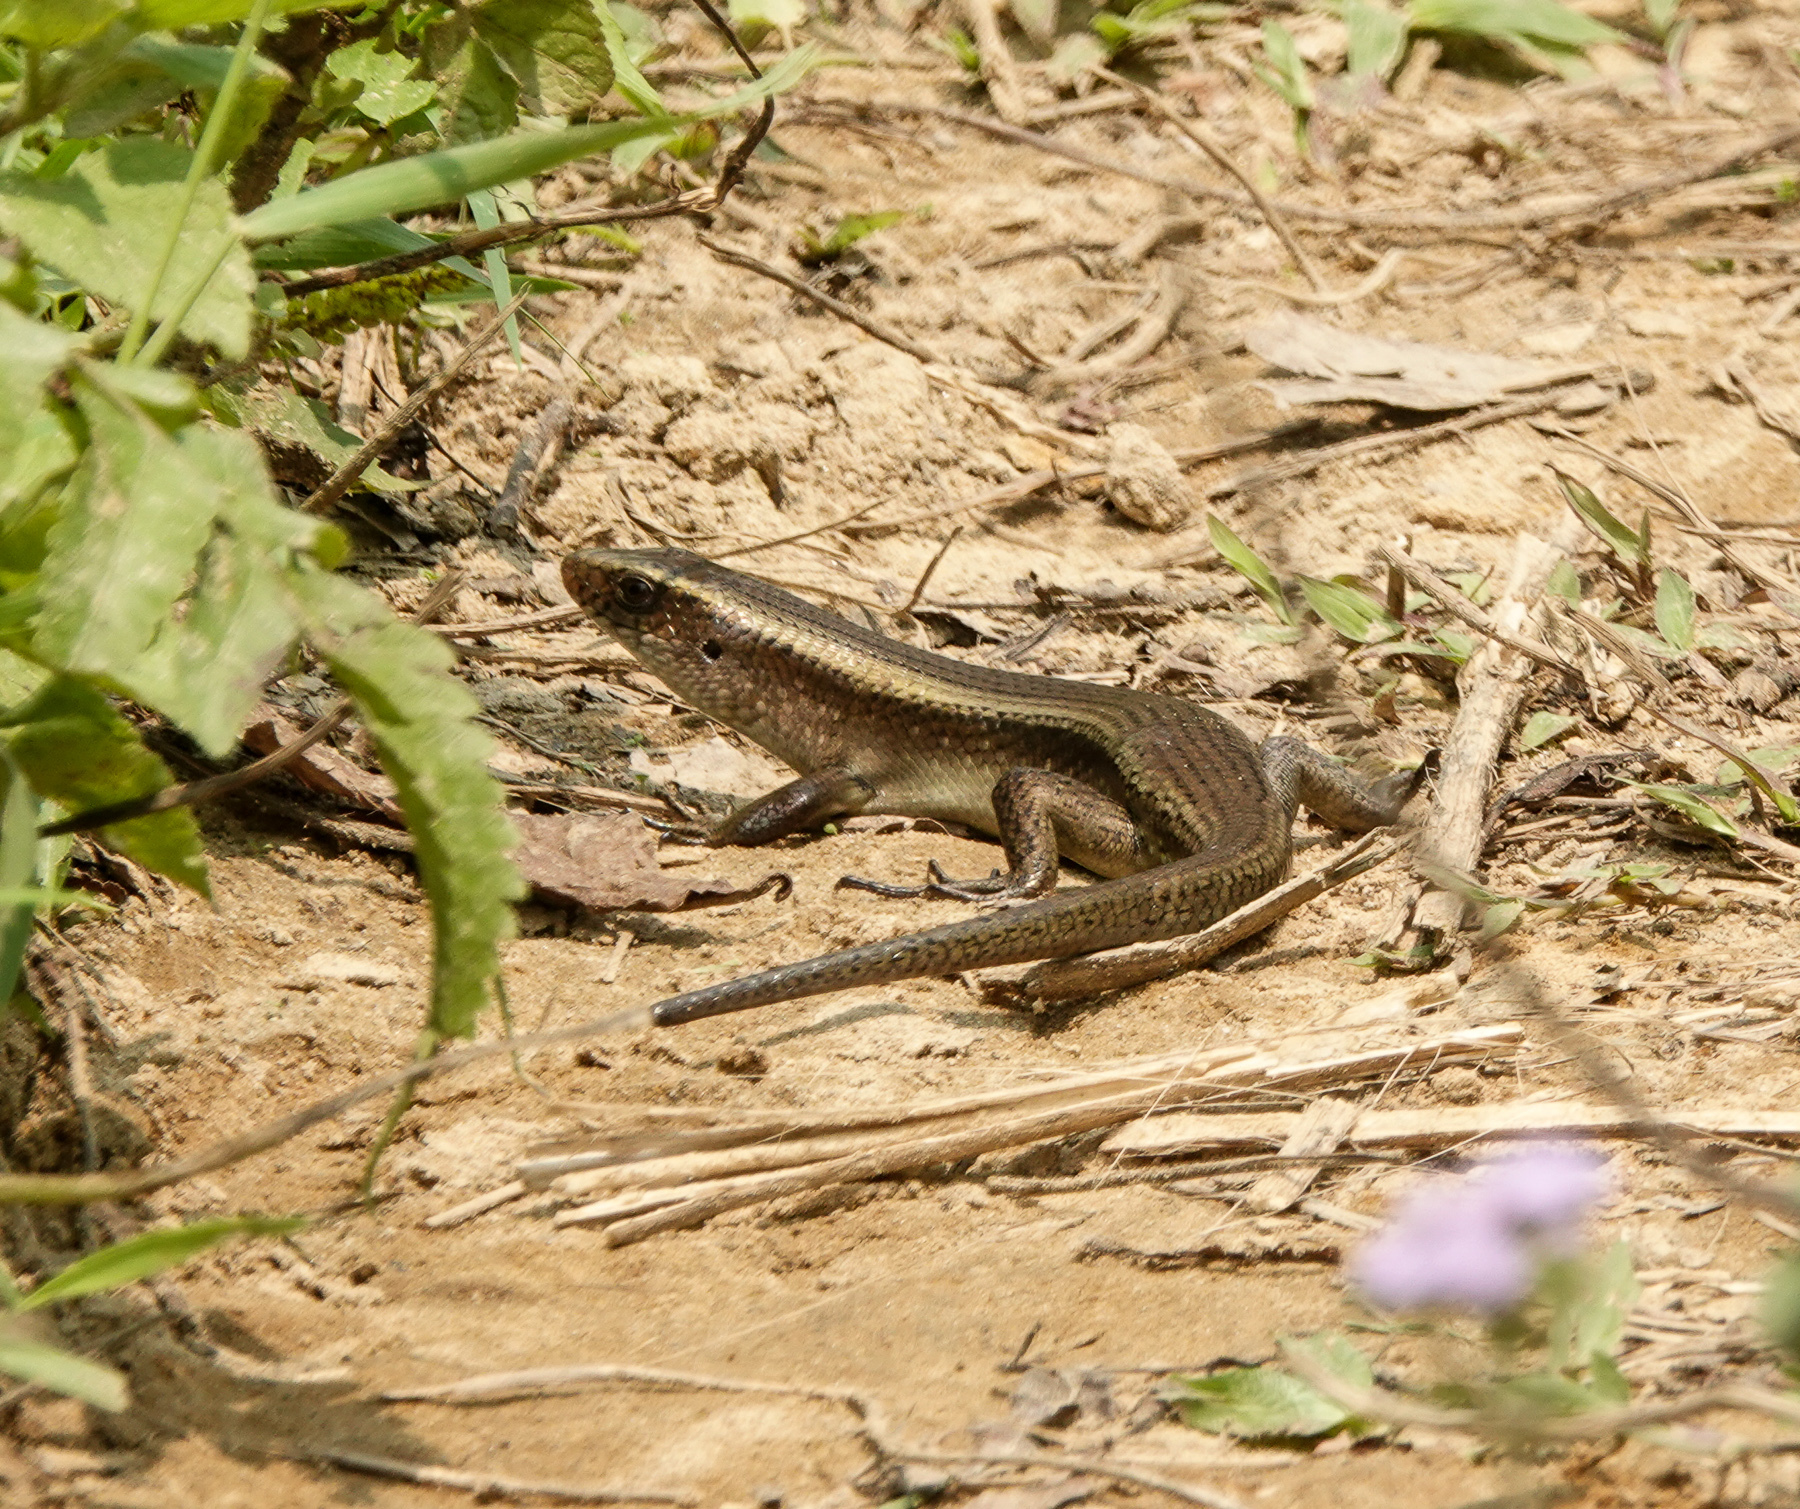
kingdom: Animalia
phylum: Chordata
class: Squamata
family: Scincidae
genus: Eutropis
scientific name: Eutropis multifasciata
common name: Common mabuya
